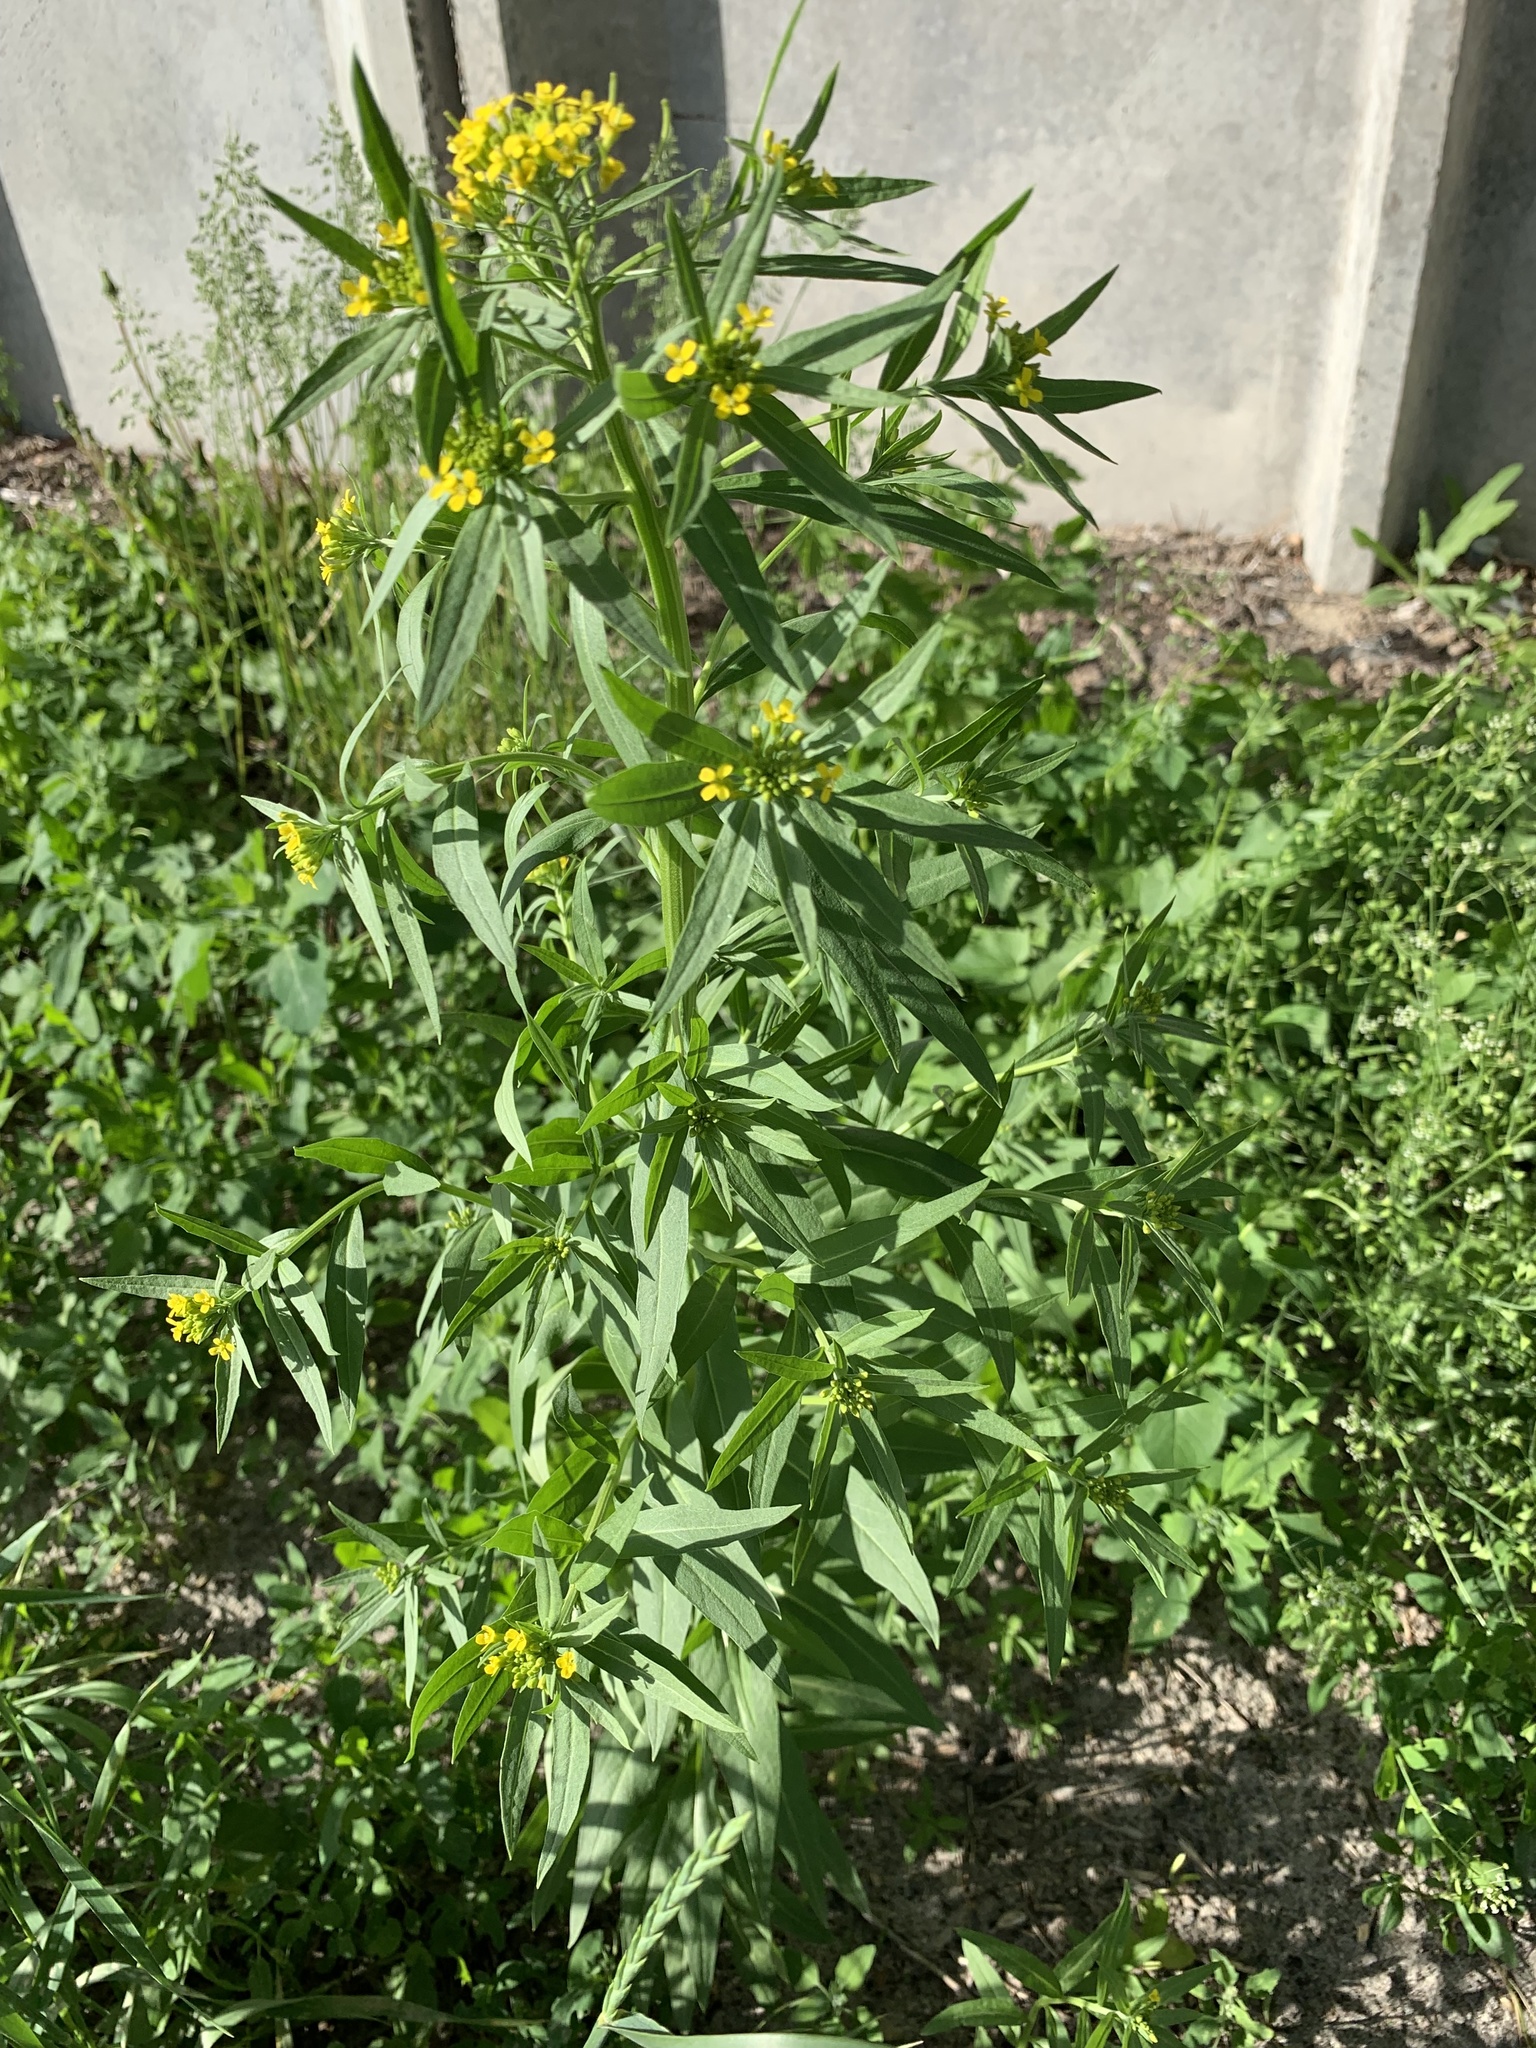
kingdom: Plantae
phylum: Tracheophyta
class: Magnoliopsida
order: Brassicales
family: Brassicaceae
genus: Erysimum
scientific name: Erysimum cheiranthoides
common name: Treacle mustard
